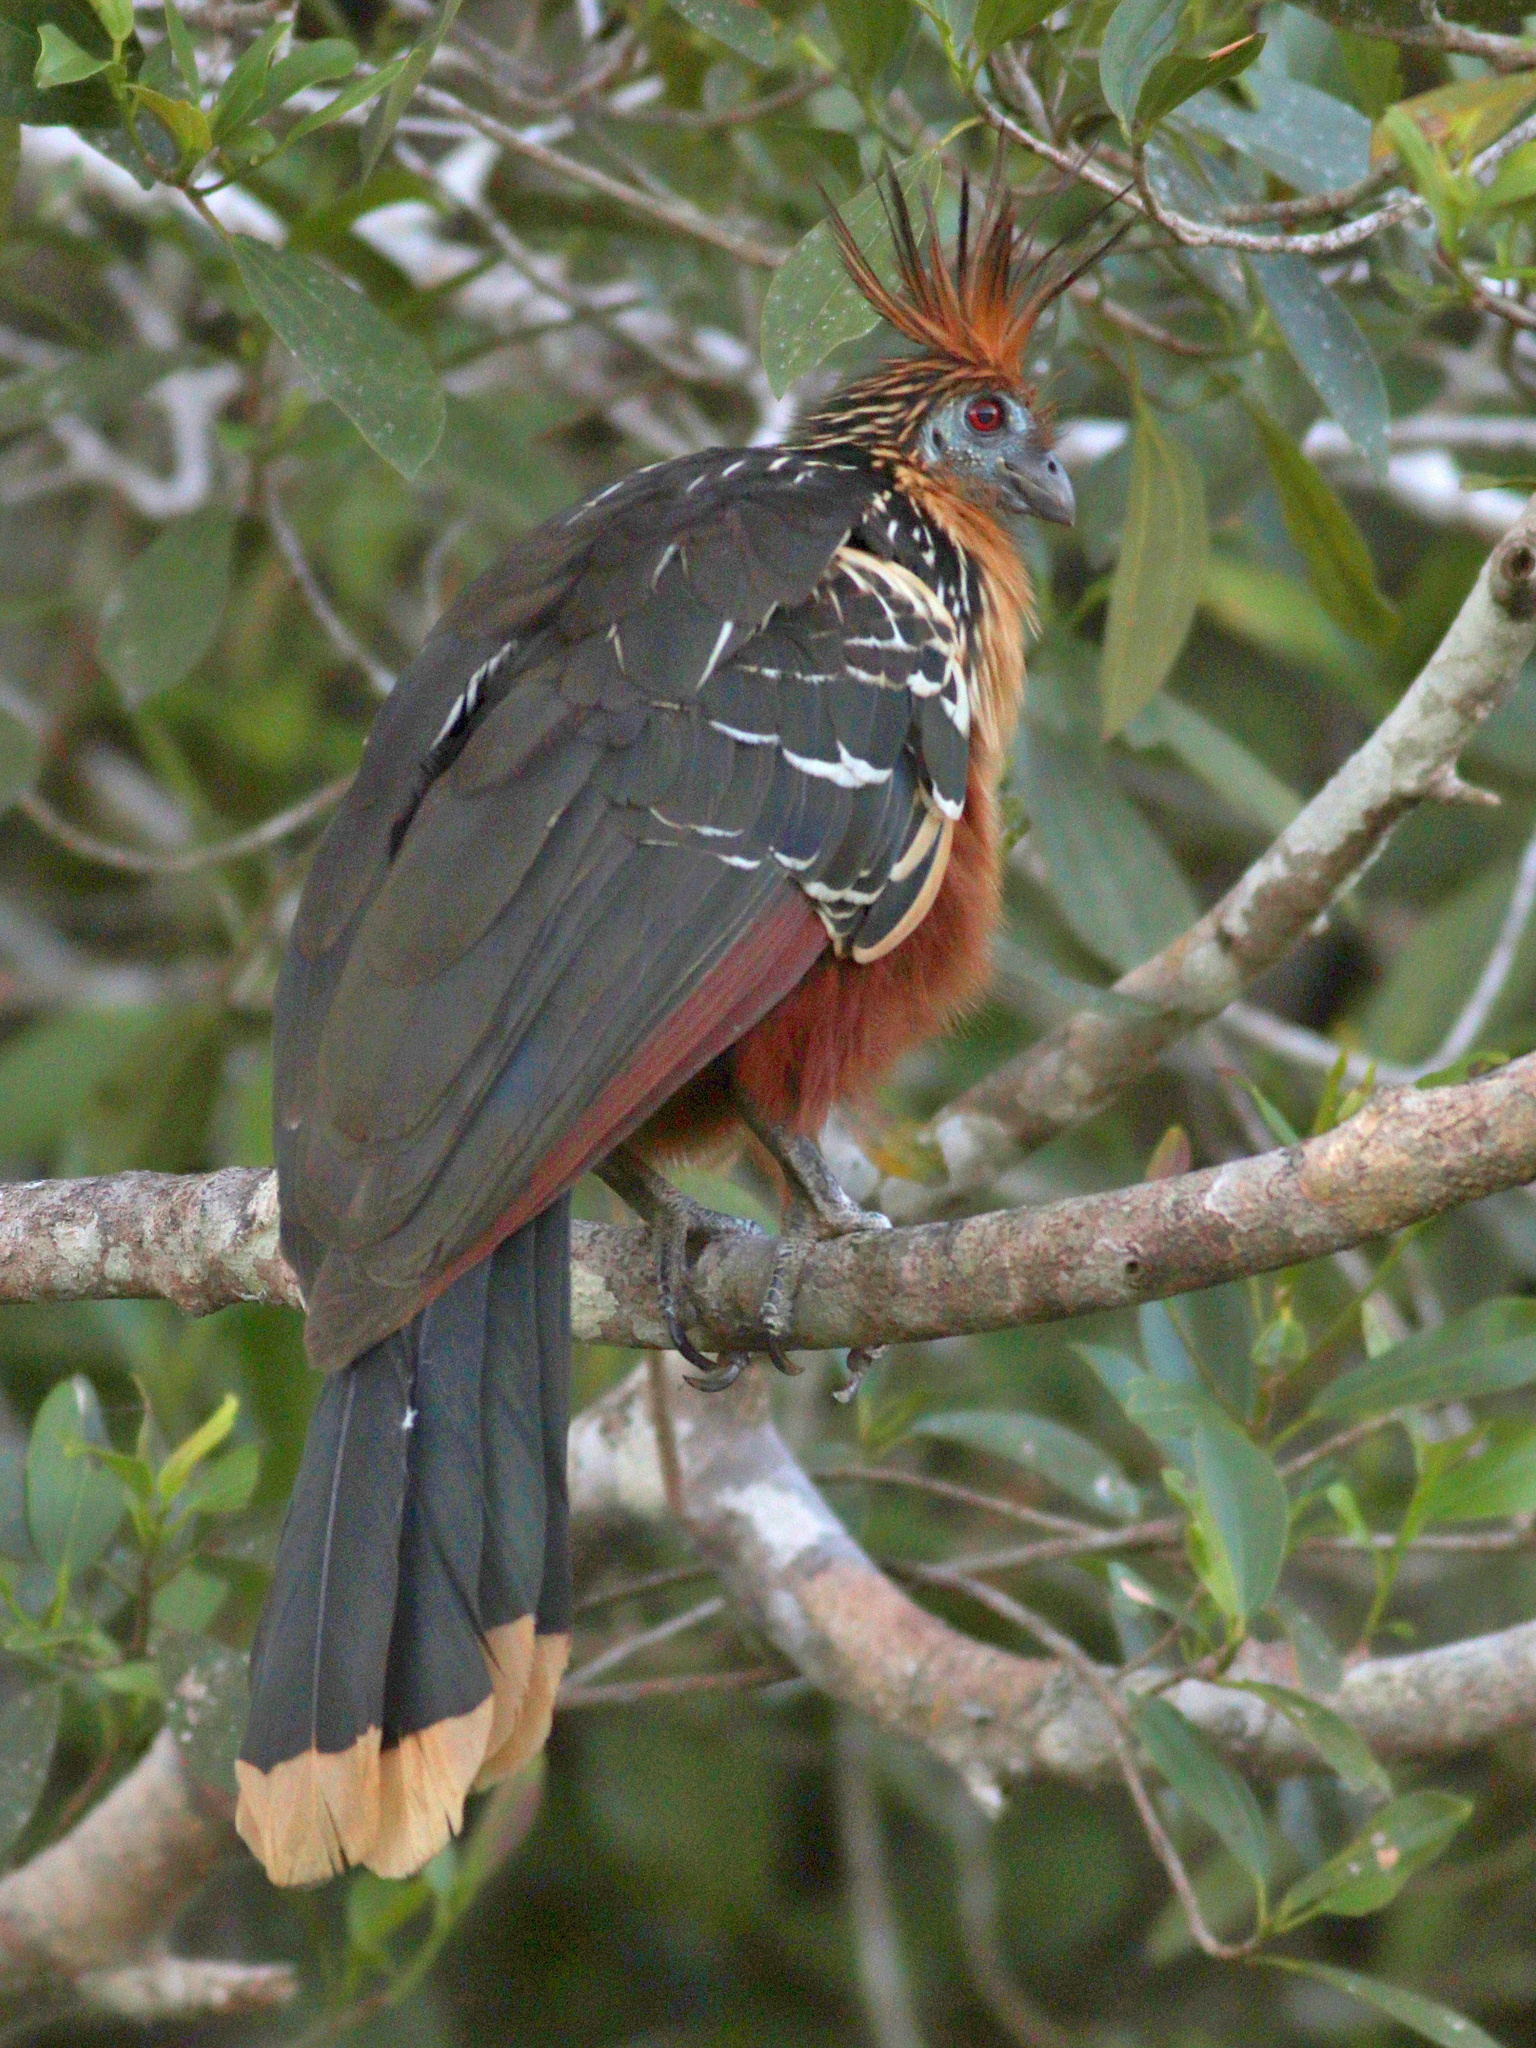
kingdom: Animalia
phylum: Chordata
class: Aves
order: Opisthocomiformes
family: Opisthocomidae
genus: Opisthocomus
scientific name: Opisthocomus hoazin
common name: Hoatzin
